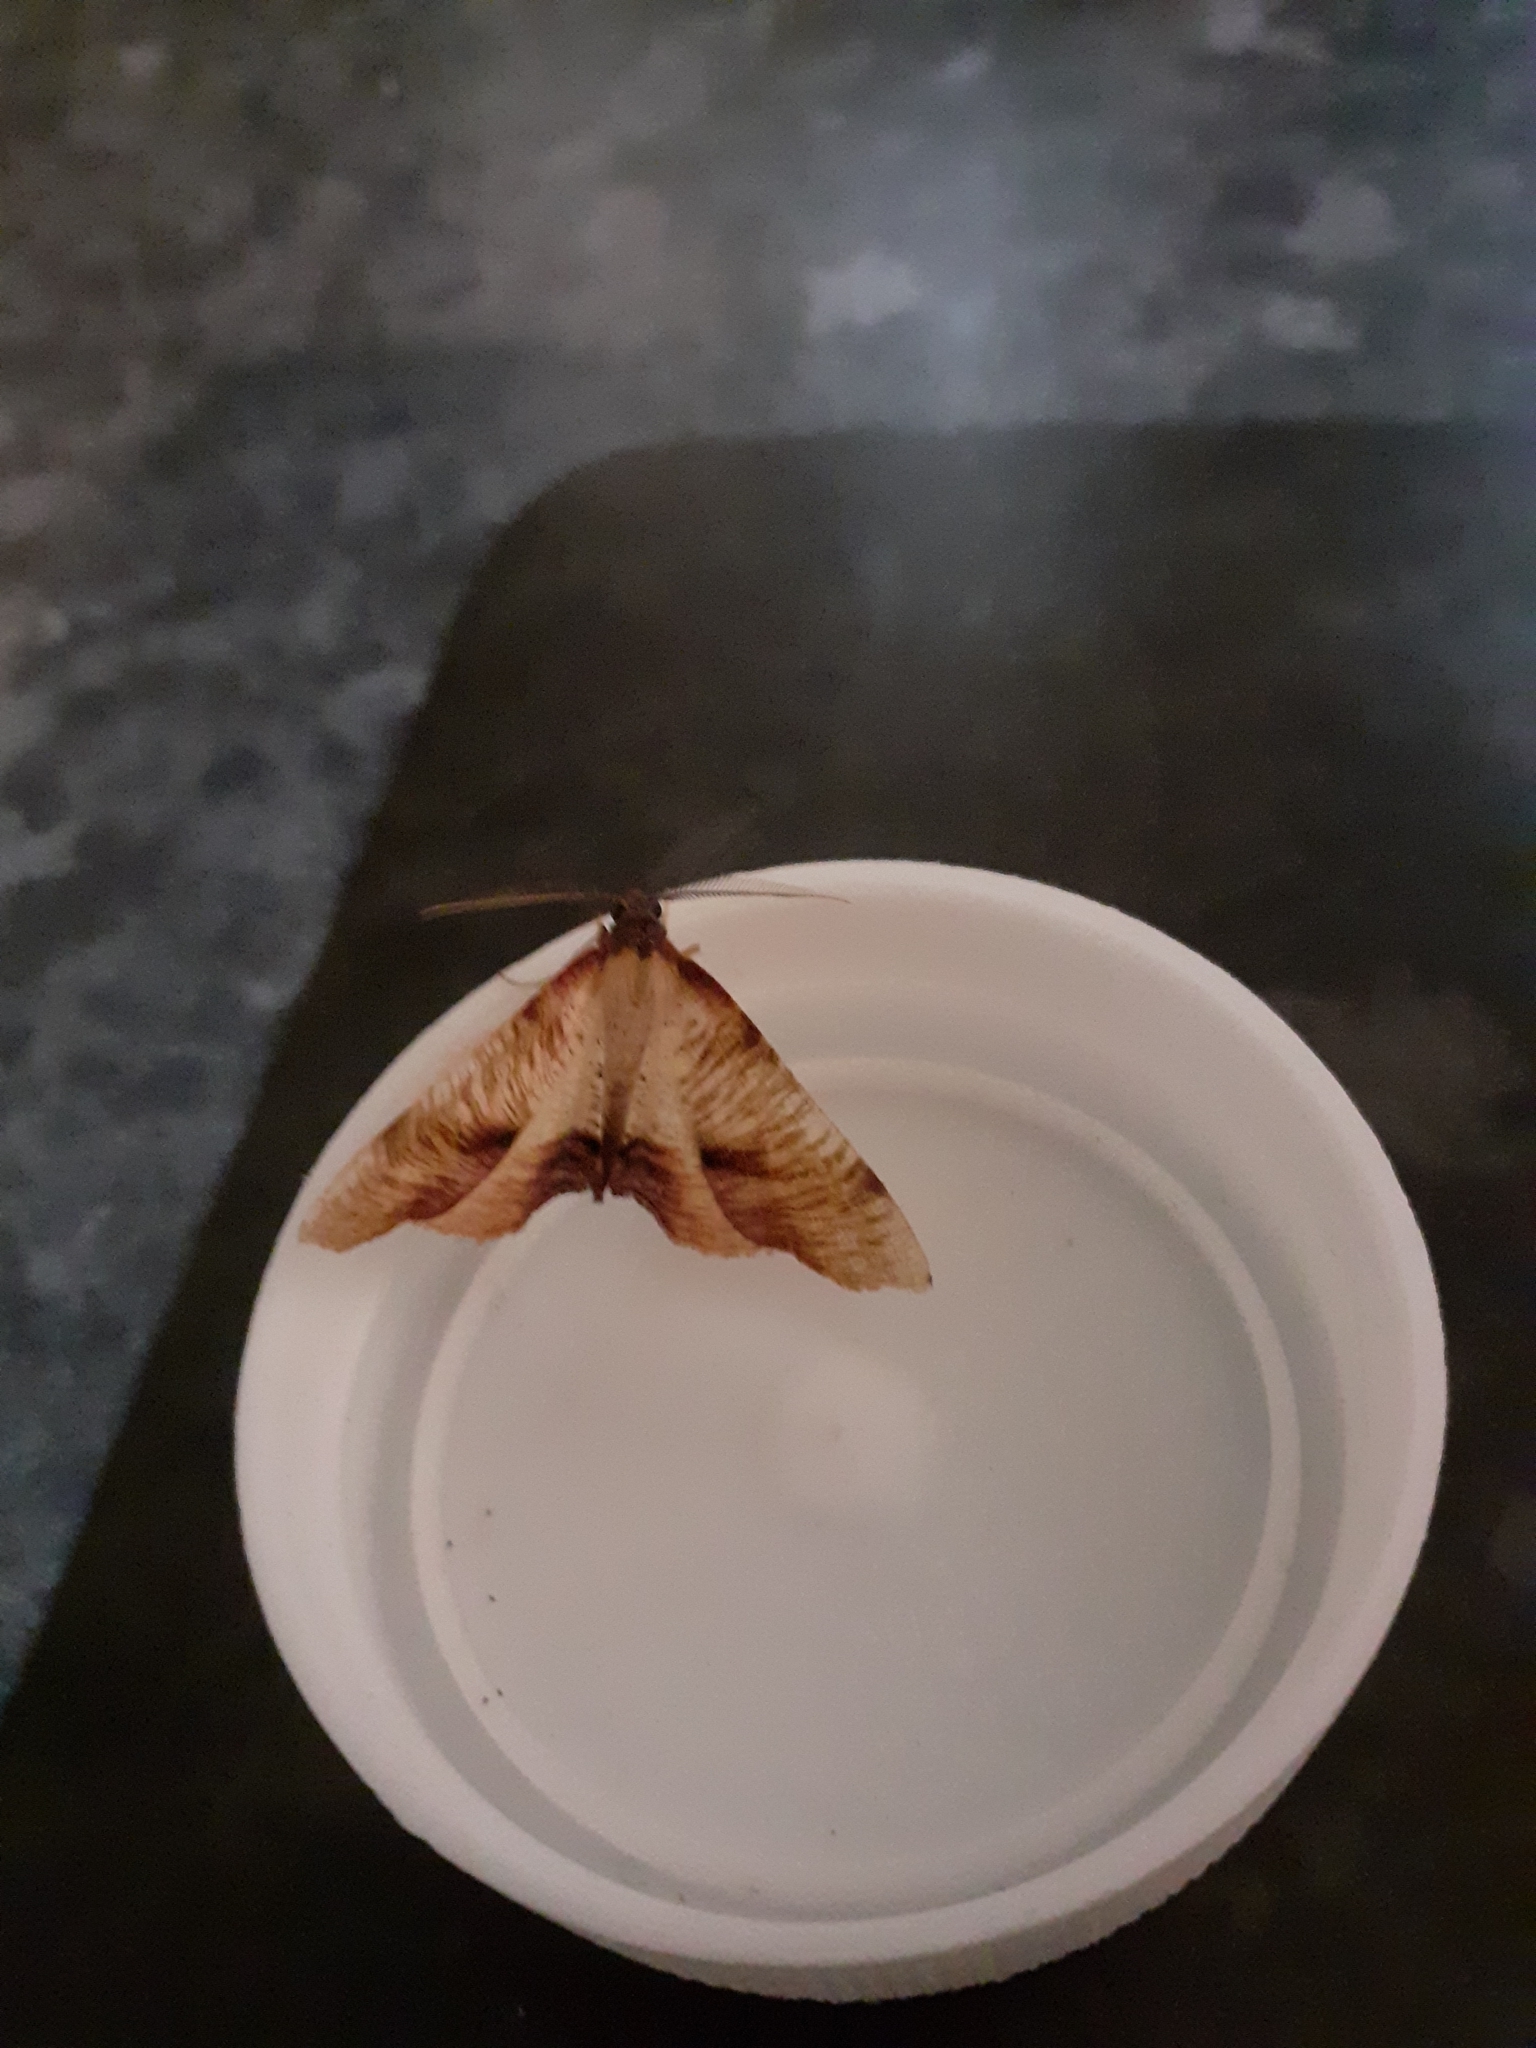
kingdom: Animalia
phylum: Arthropoda
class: Insecta
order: Lepidoptera
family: Geometridae
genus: Plagodis
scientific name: Plagodis dolabraria
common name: Scorched wing
